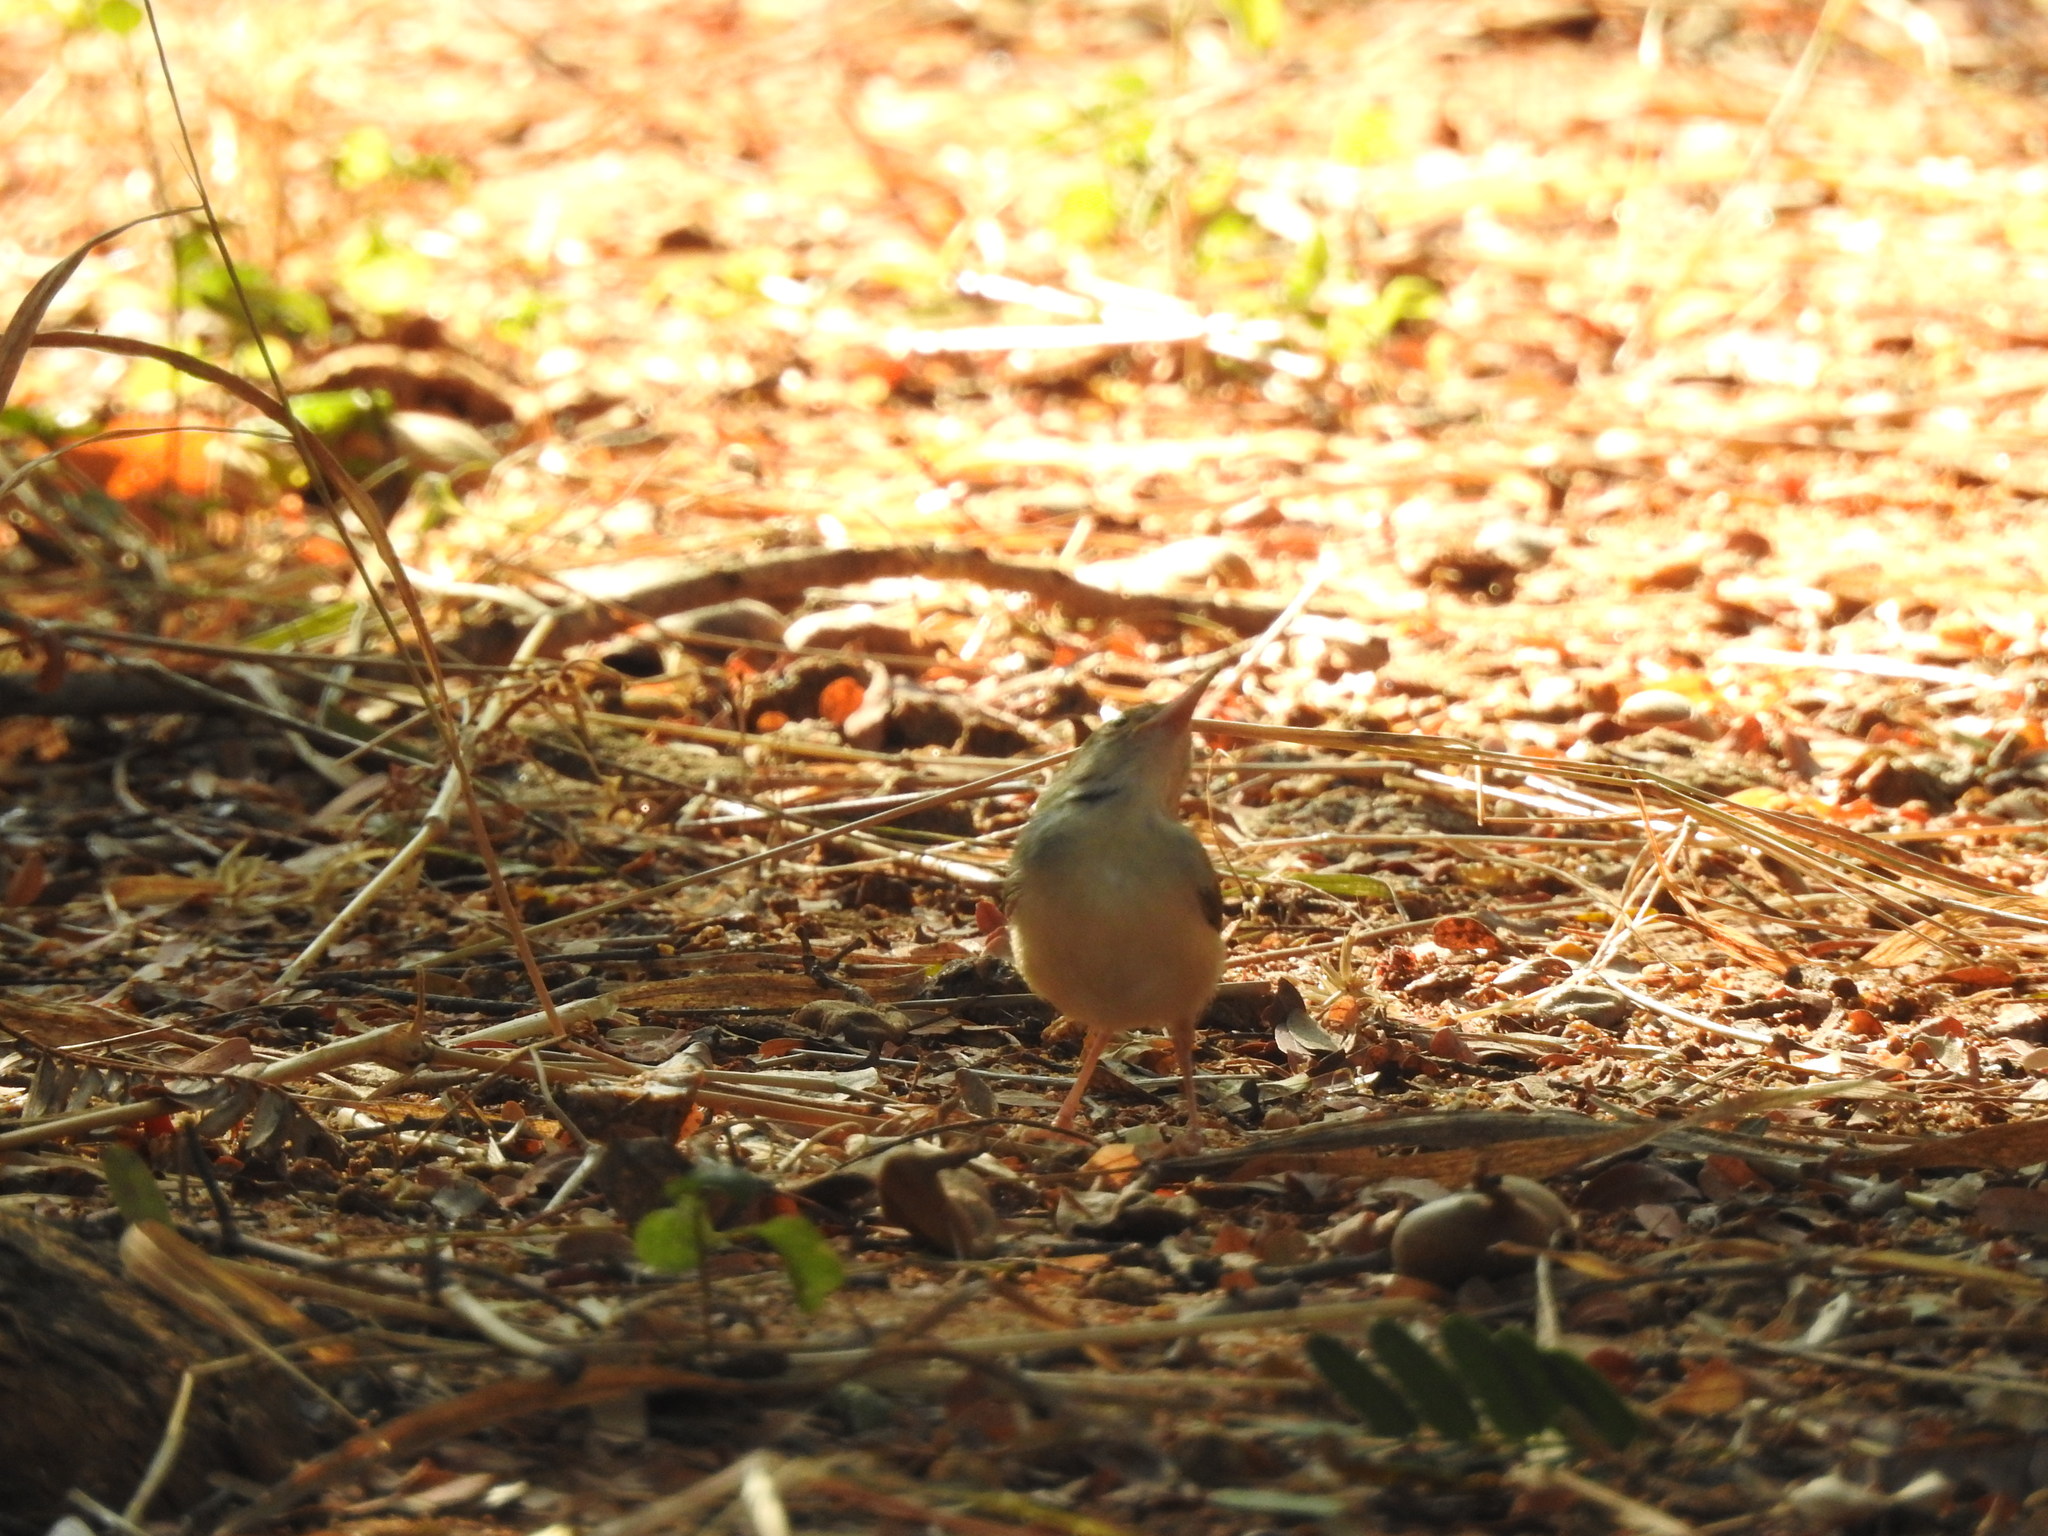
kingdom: Animalia
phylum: Chordata
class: Aves
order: Passeriformes
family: Cisticolidae
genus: Orthotomus
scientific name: Orthotomus sutorius
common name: Common tailorbird
